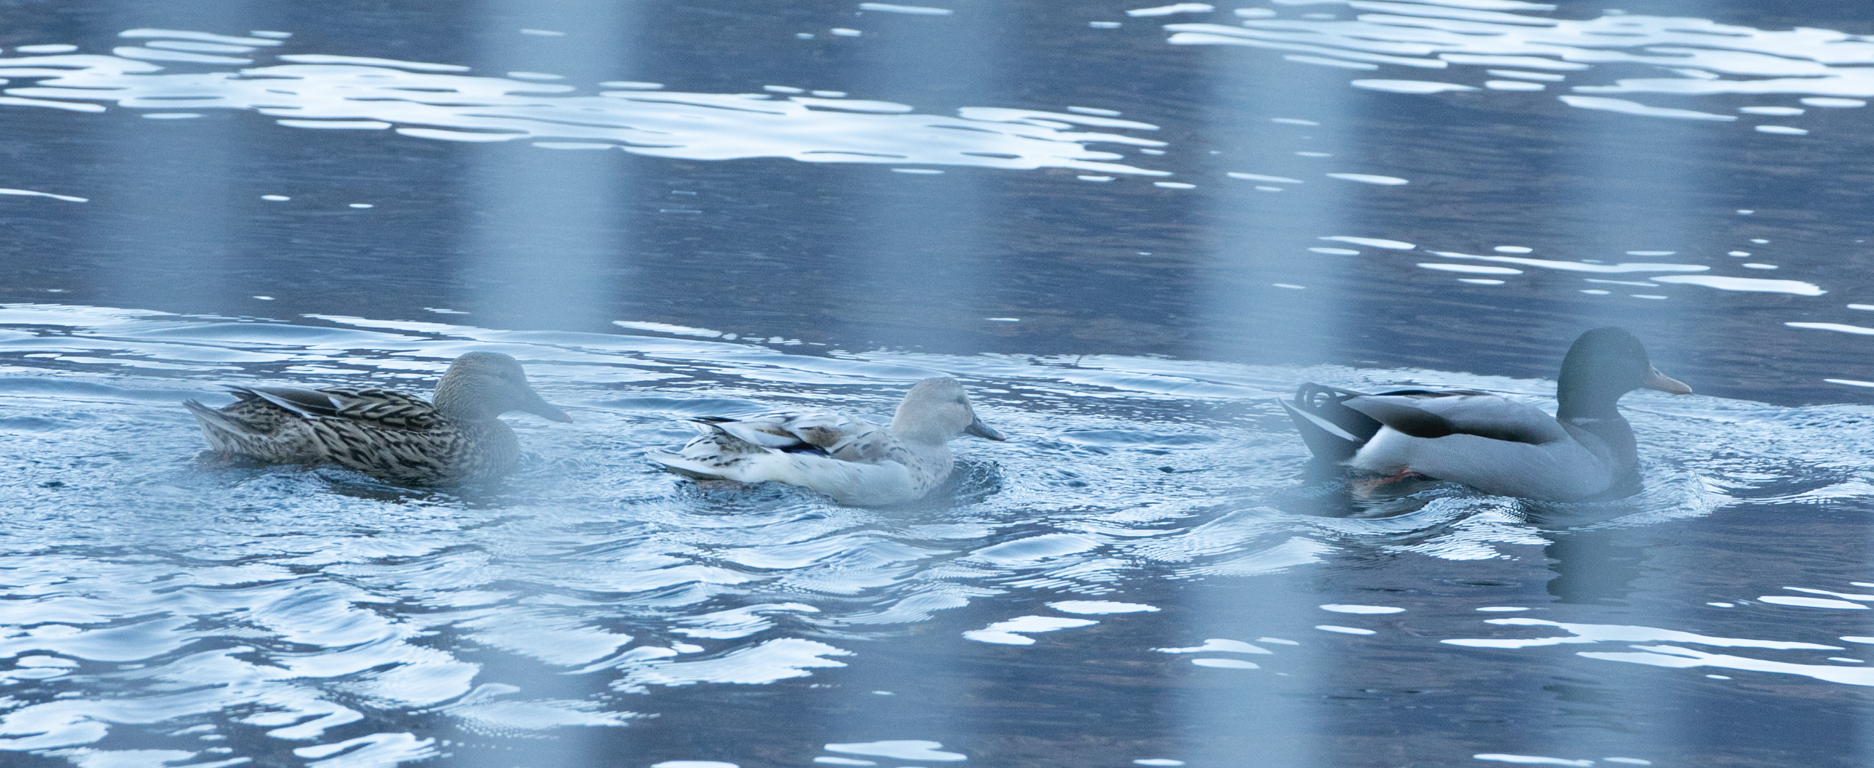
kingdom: Animalia
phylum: Chordata
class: Aves
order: Anseriformes
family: Anatidae
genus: Anas
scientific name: Anas platyrhynchos
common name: Mallard
